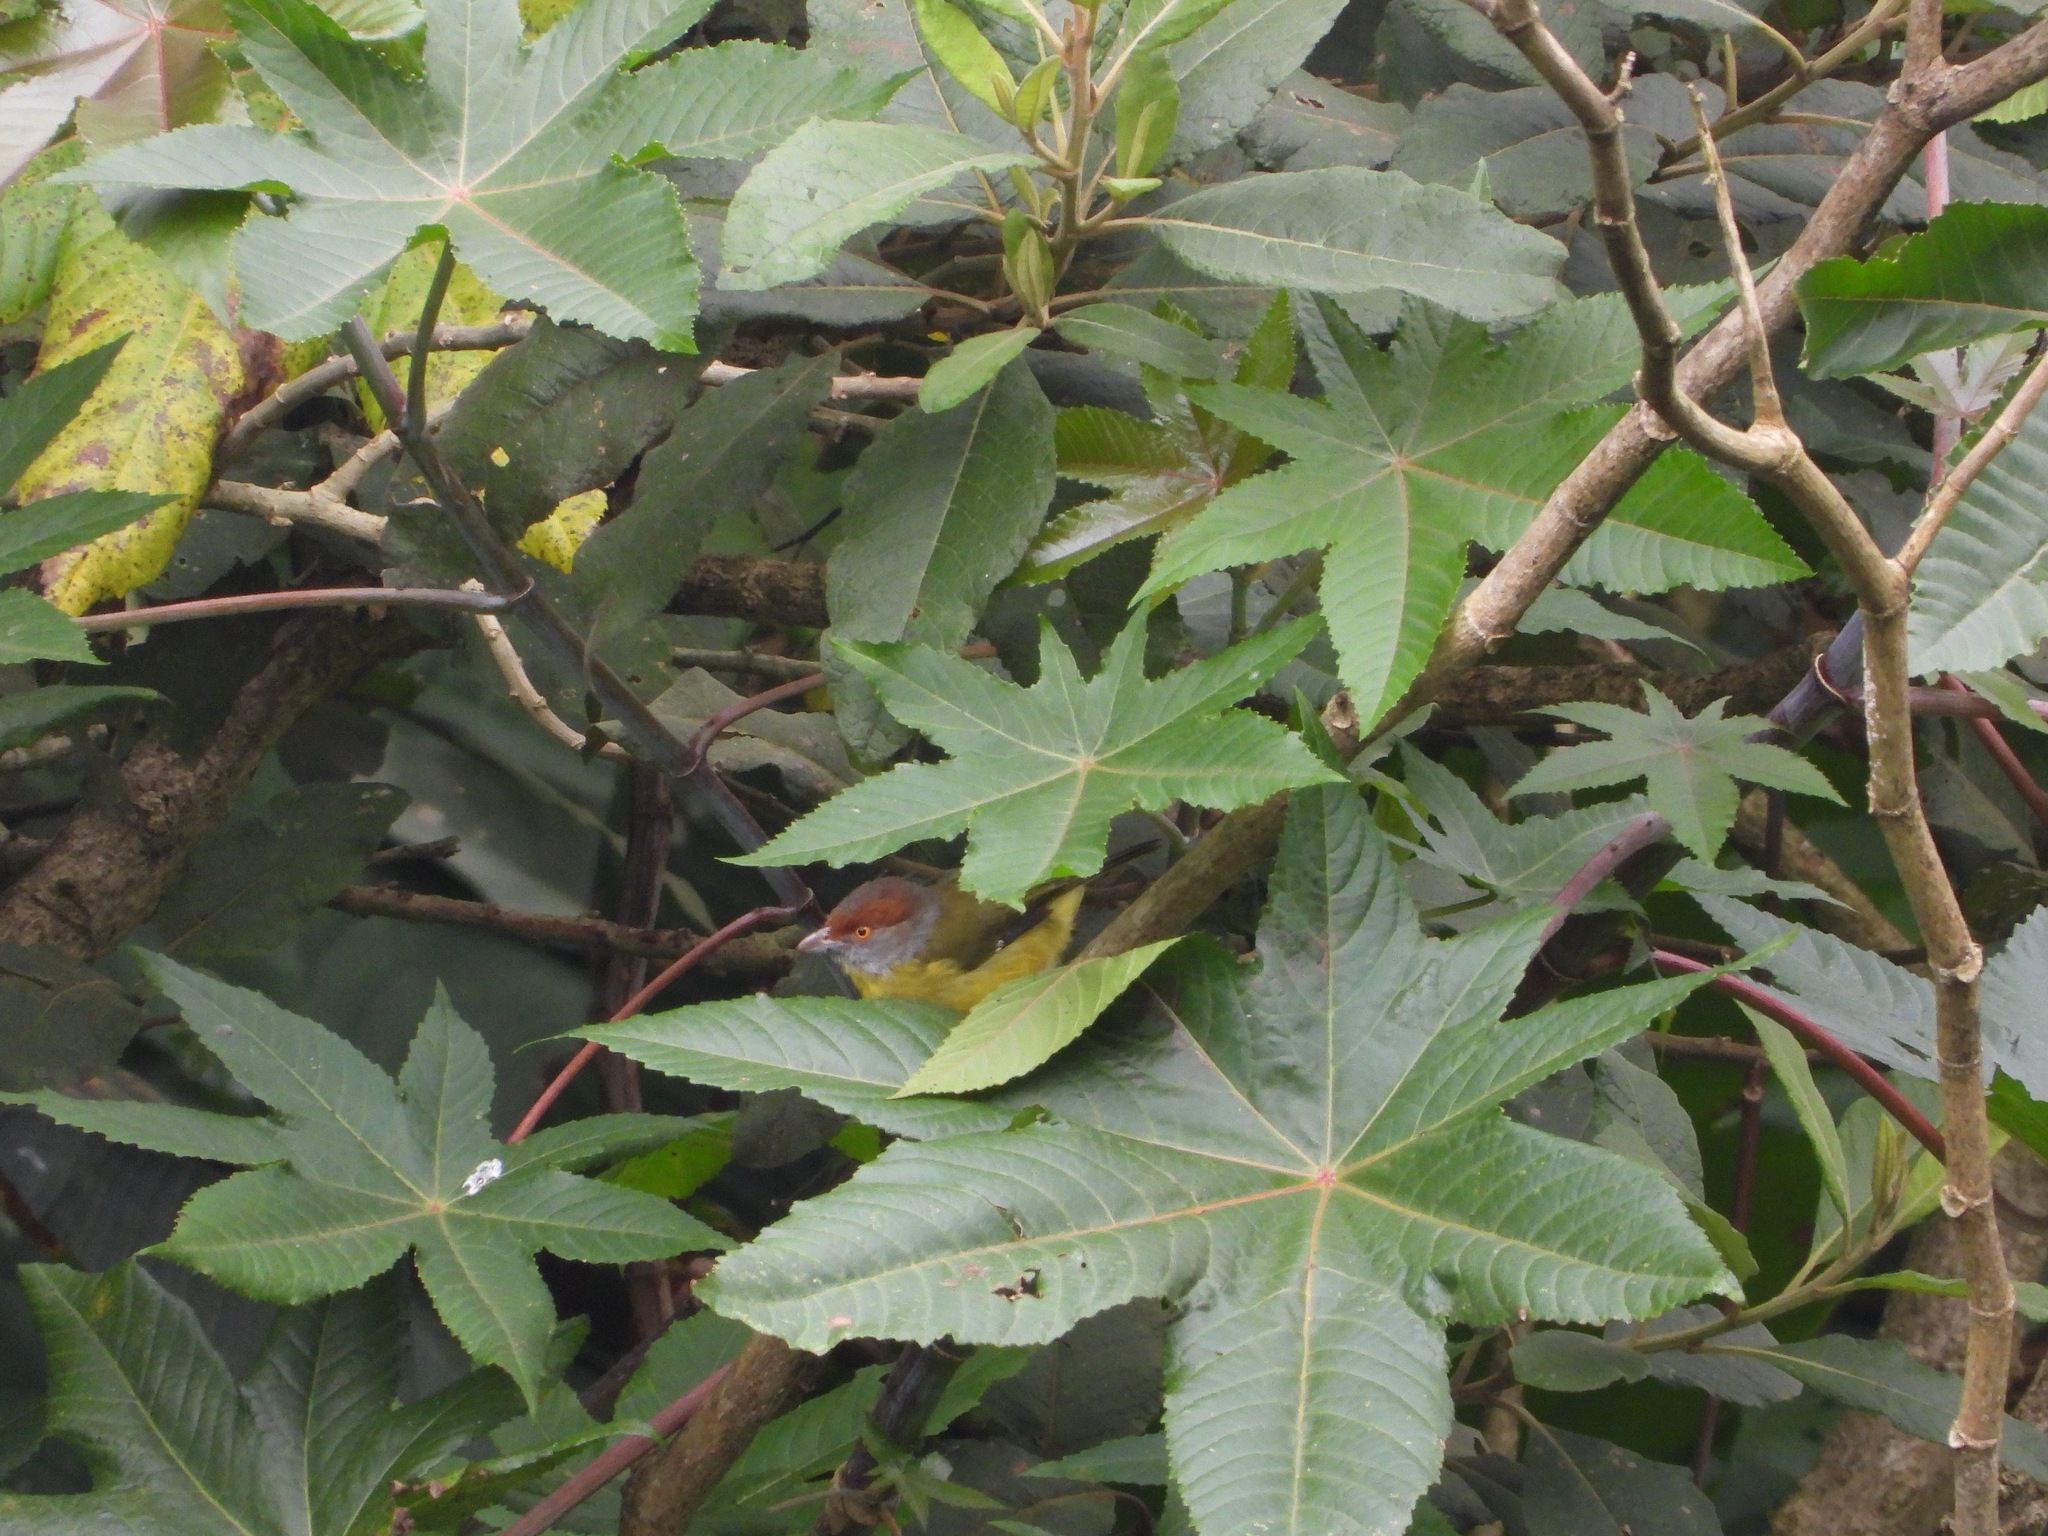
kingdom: Animalia
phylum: Chordata
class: Aves
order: Passeriformes
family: Vireonidae
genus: Cyclarhis
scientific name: Cyclarhis gujanensis
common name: Rufous-browed peppershrike
